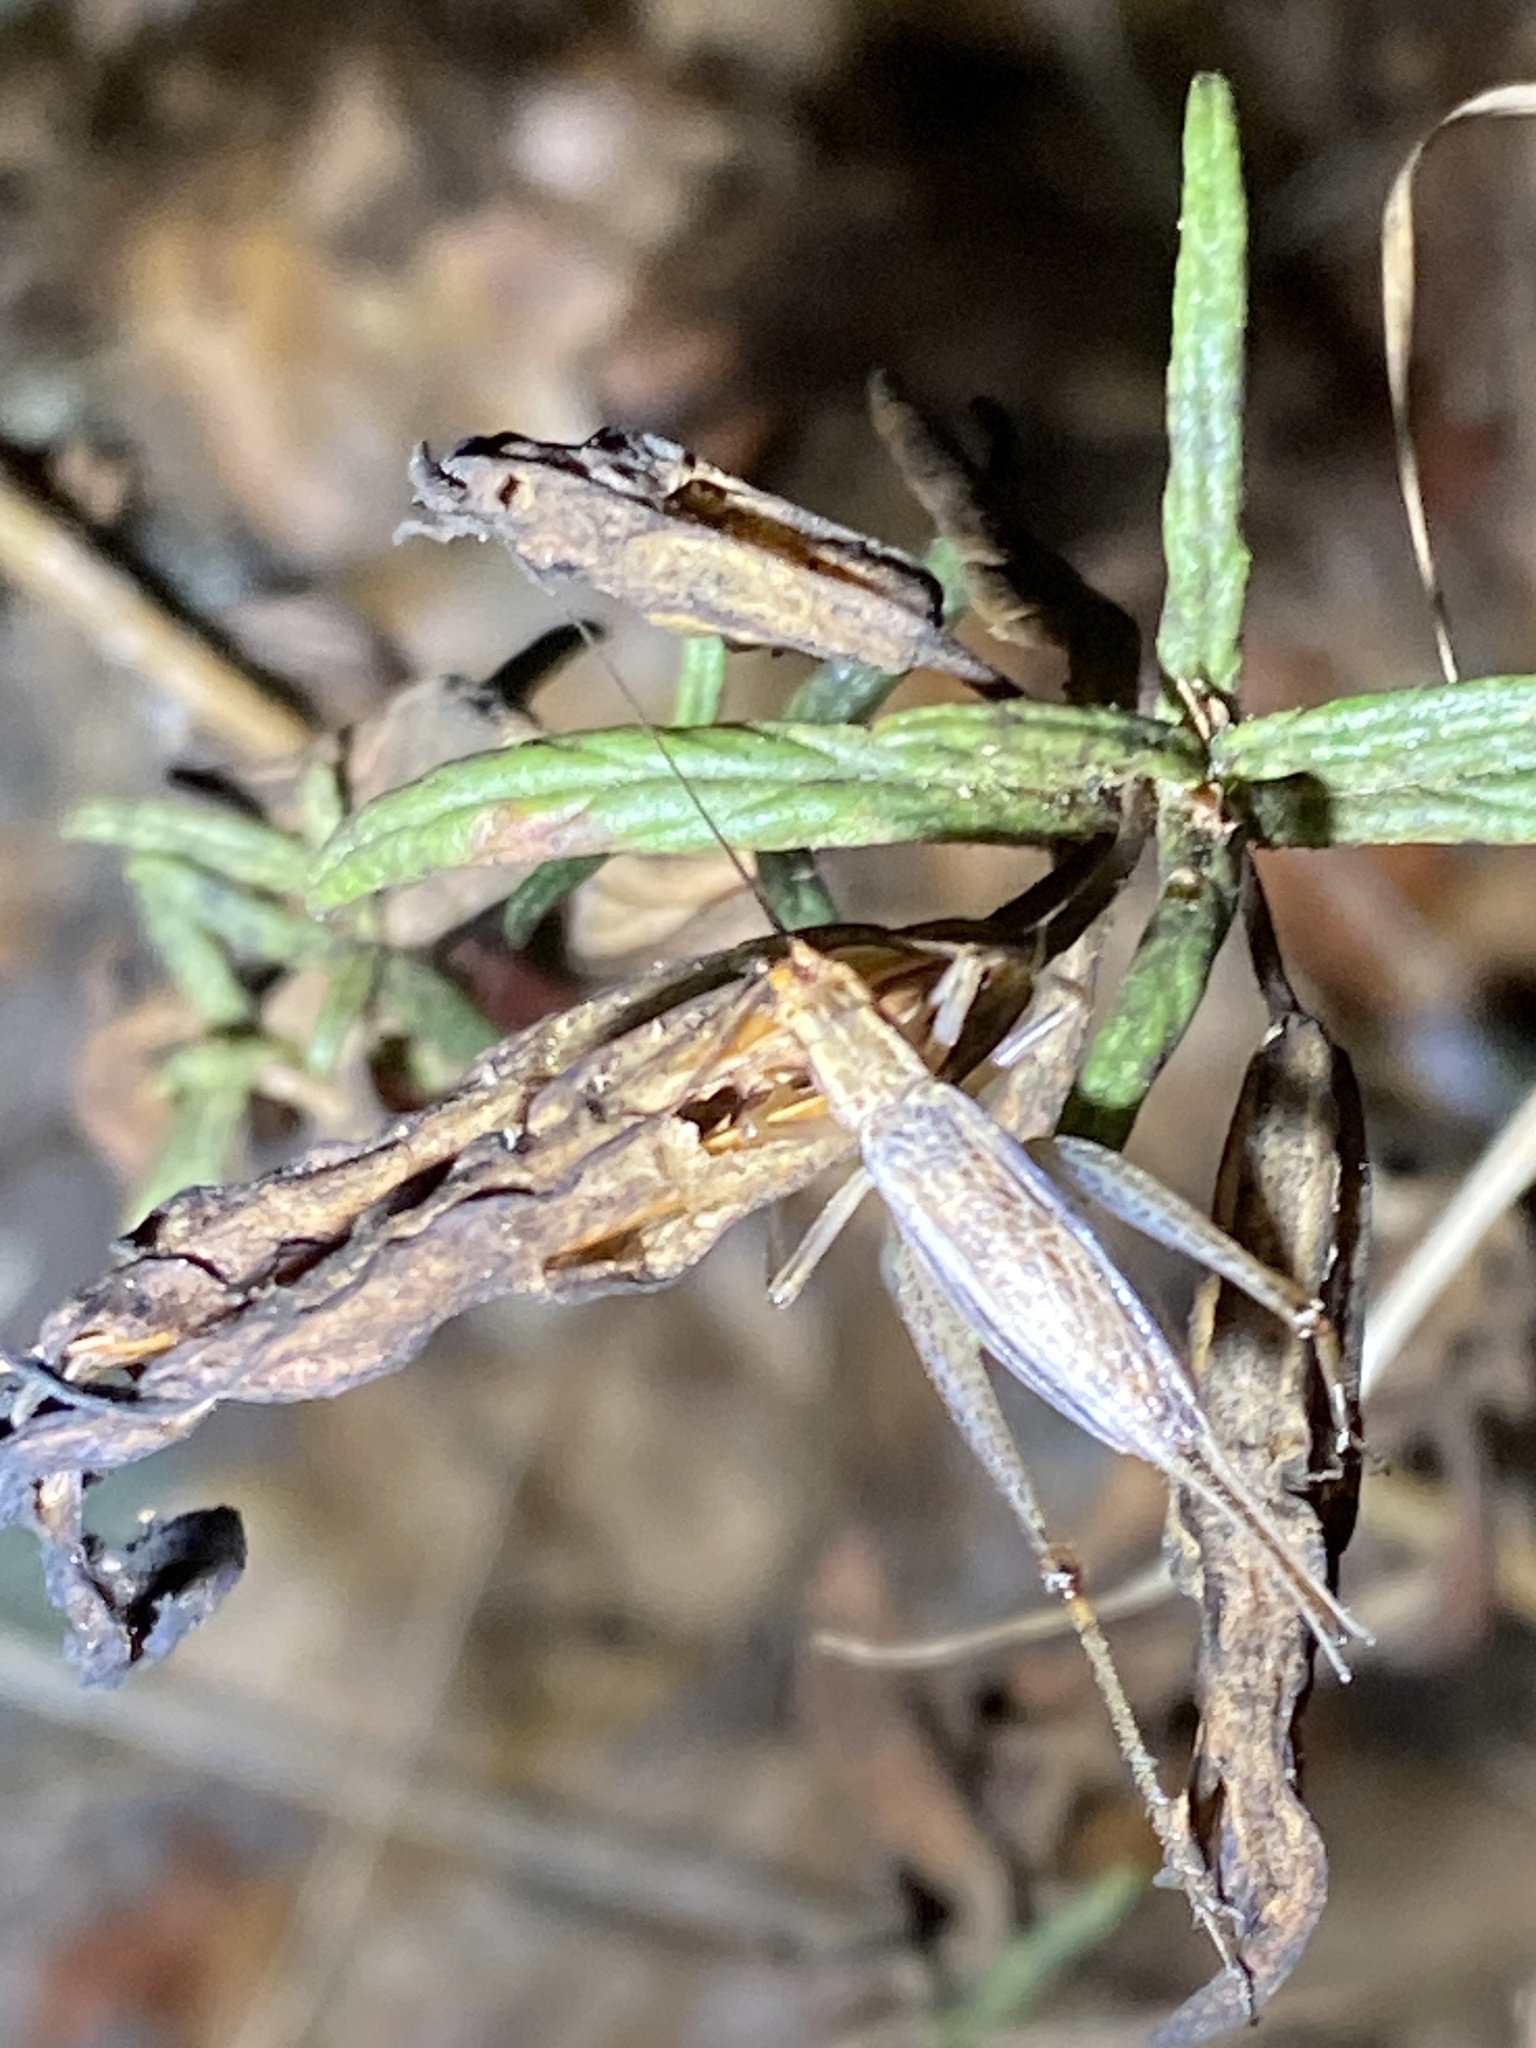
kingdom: Animalia
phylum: Arthropoda
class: Insecta
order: Orthoptera
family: Gryllidae
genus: Oecanthus
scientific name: Oecanthus californicus
